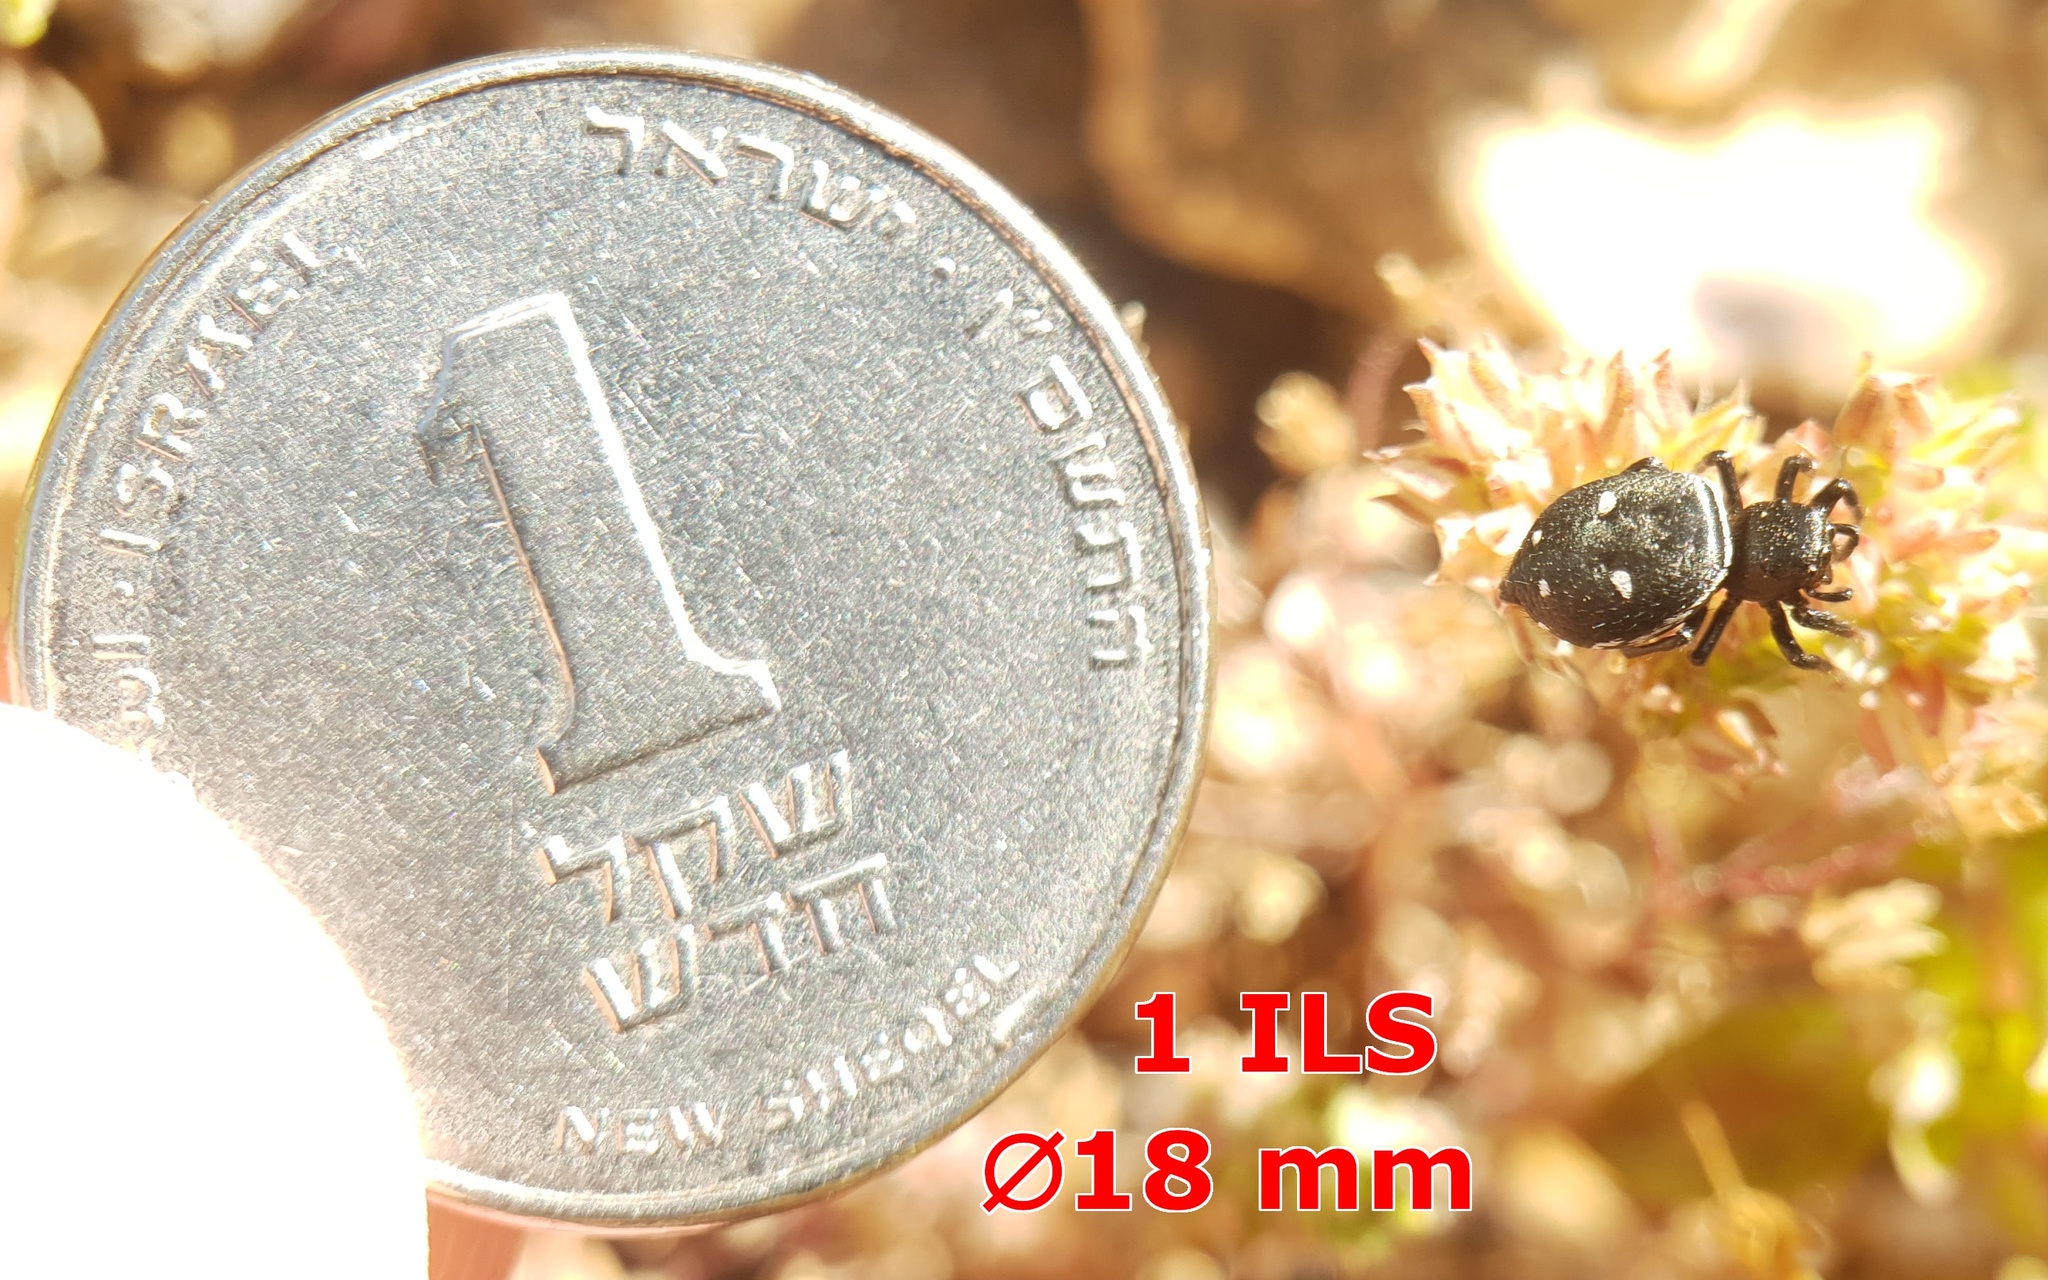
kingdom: Animalia
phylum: Arthropoda
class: Arachnida
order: Araneae
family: Salticidae
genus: Heliophanus
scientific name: Heliophanus kochii
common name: Sun jumping spider
